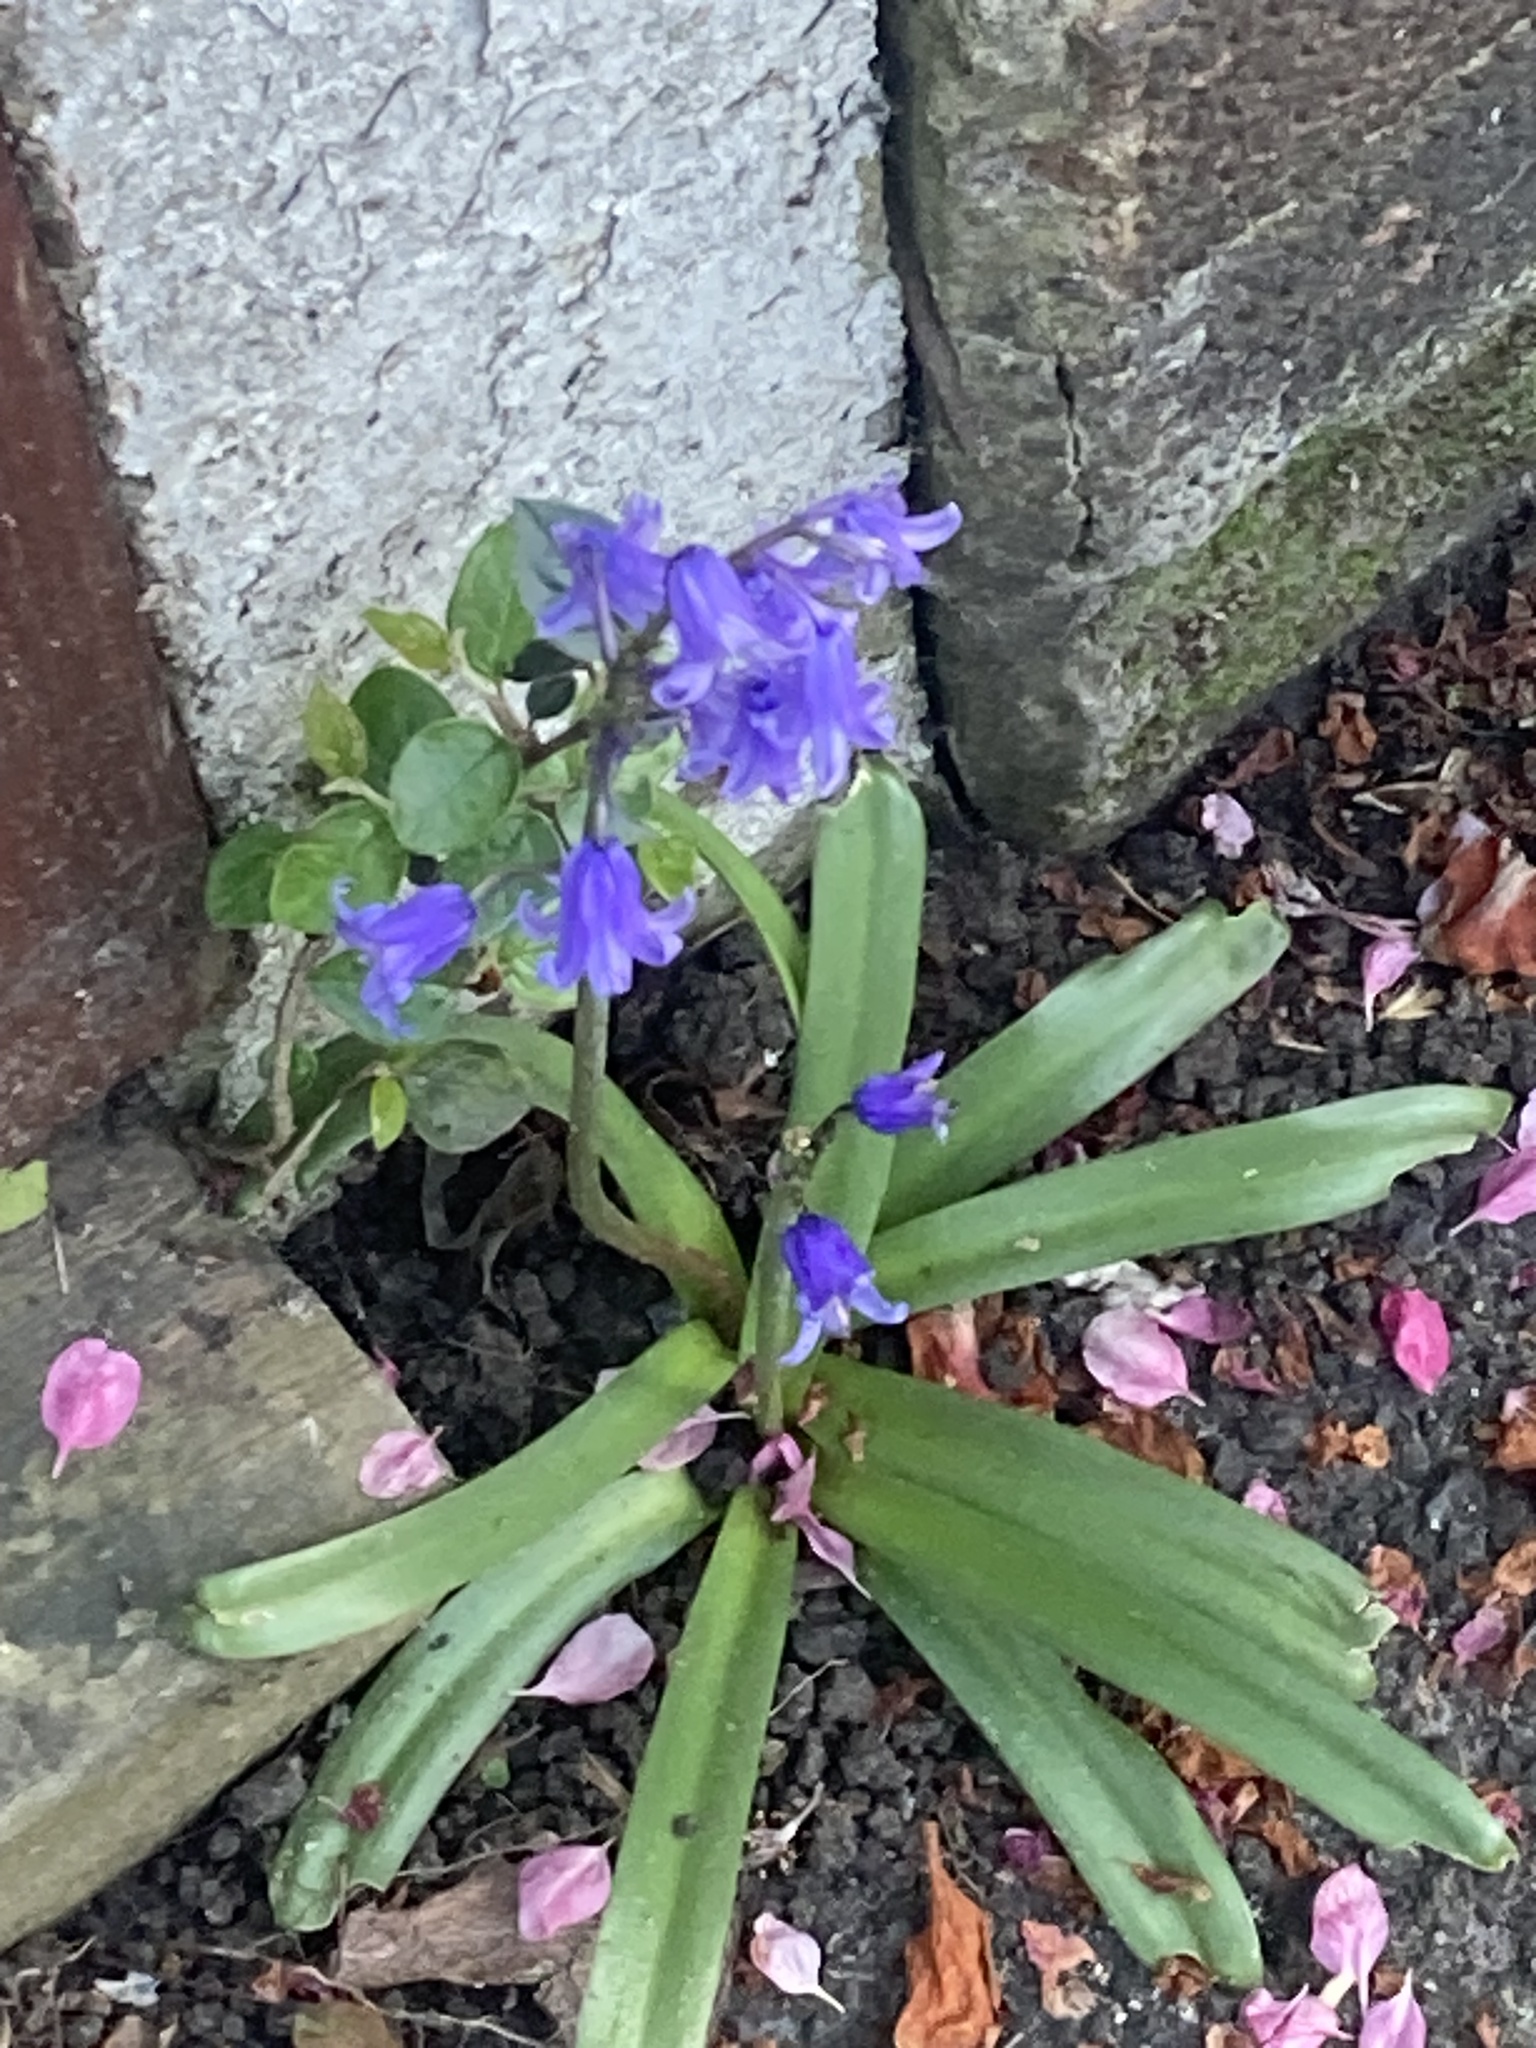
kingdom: Plantae
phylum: Tracheophyta
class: Liliopsida
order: Asparagales
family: Asparagaceae
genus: Hyacinthoides
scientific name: Hyacinthoides hispanica
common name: Spanish bluebell
